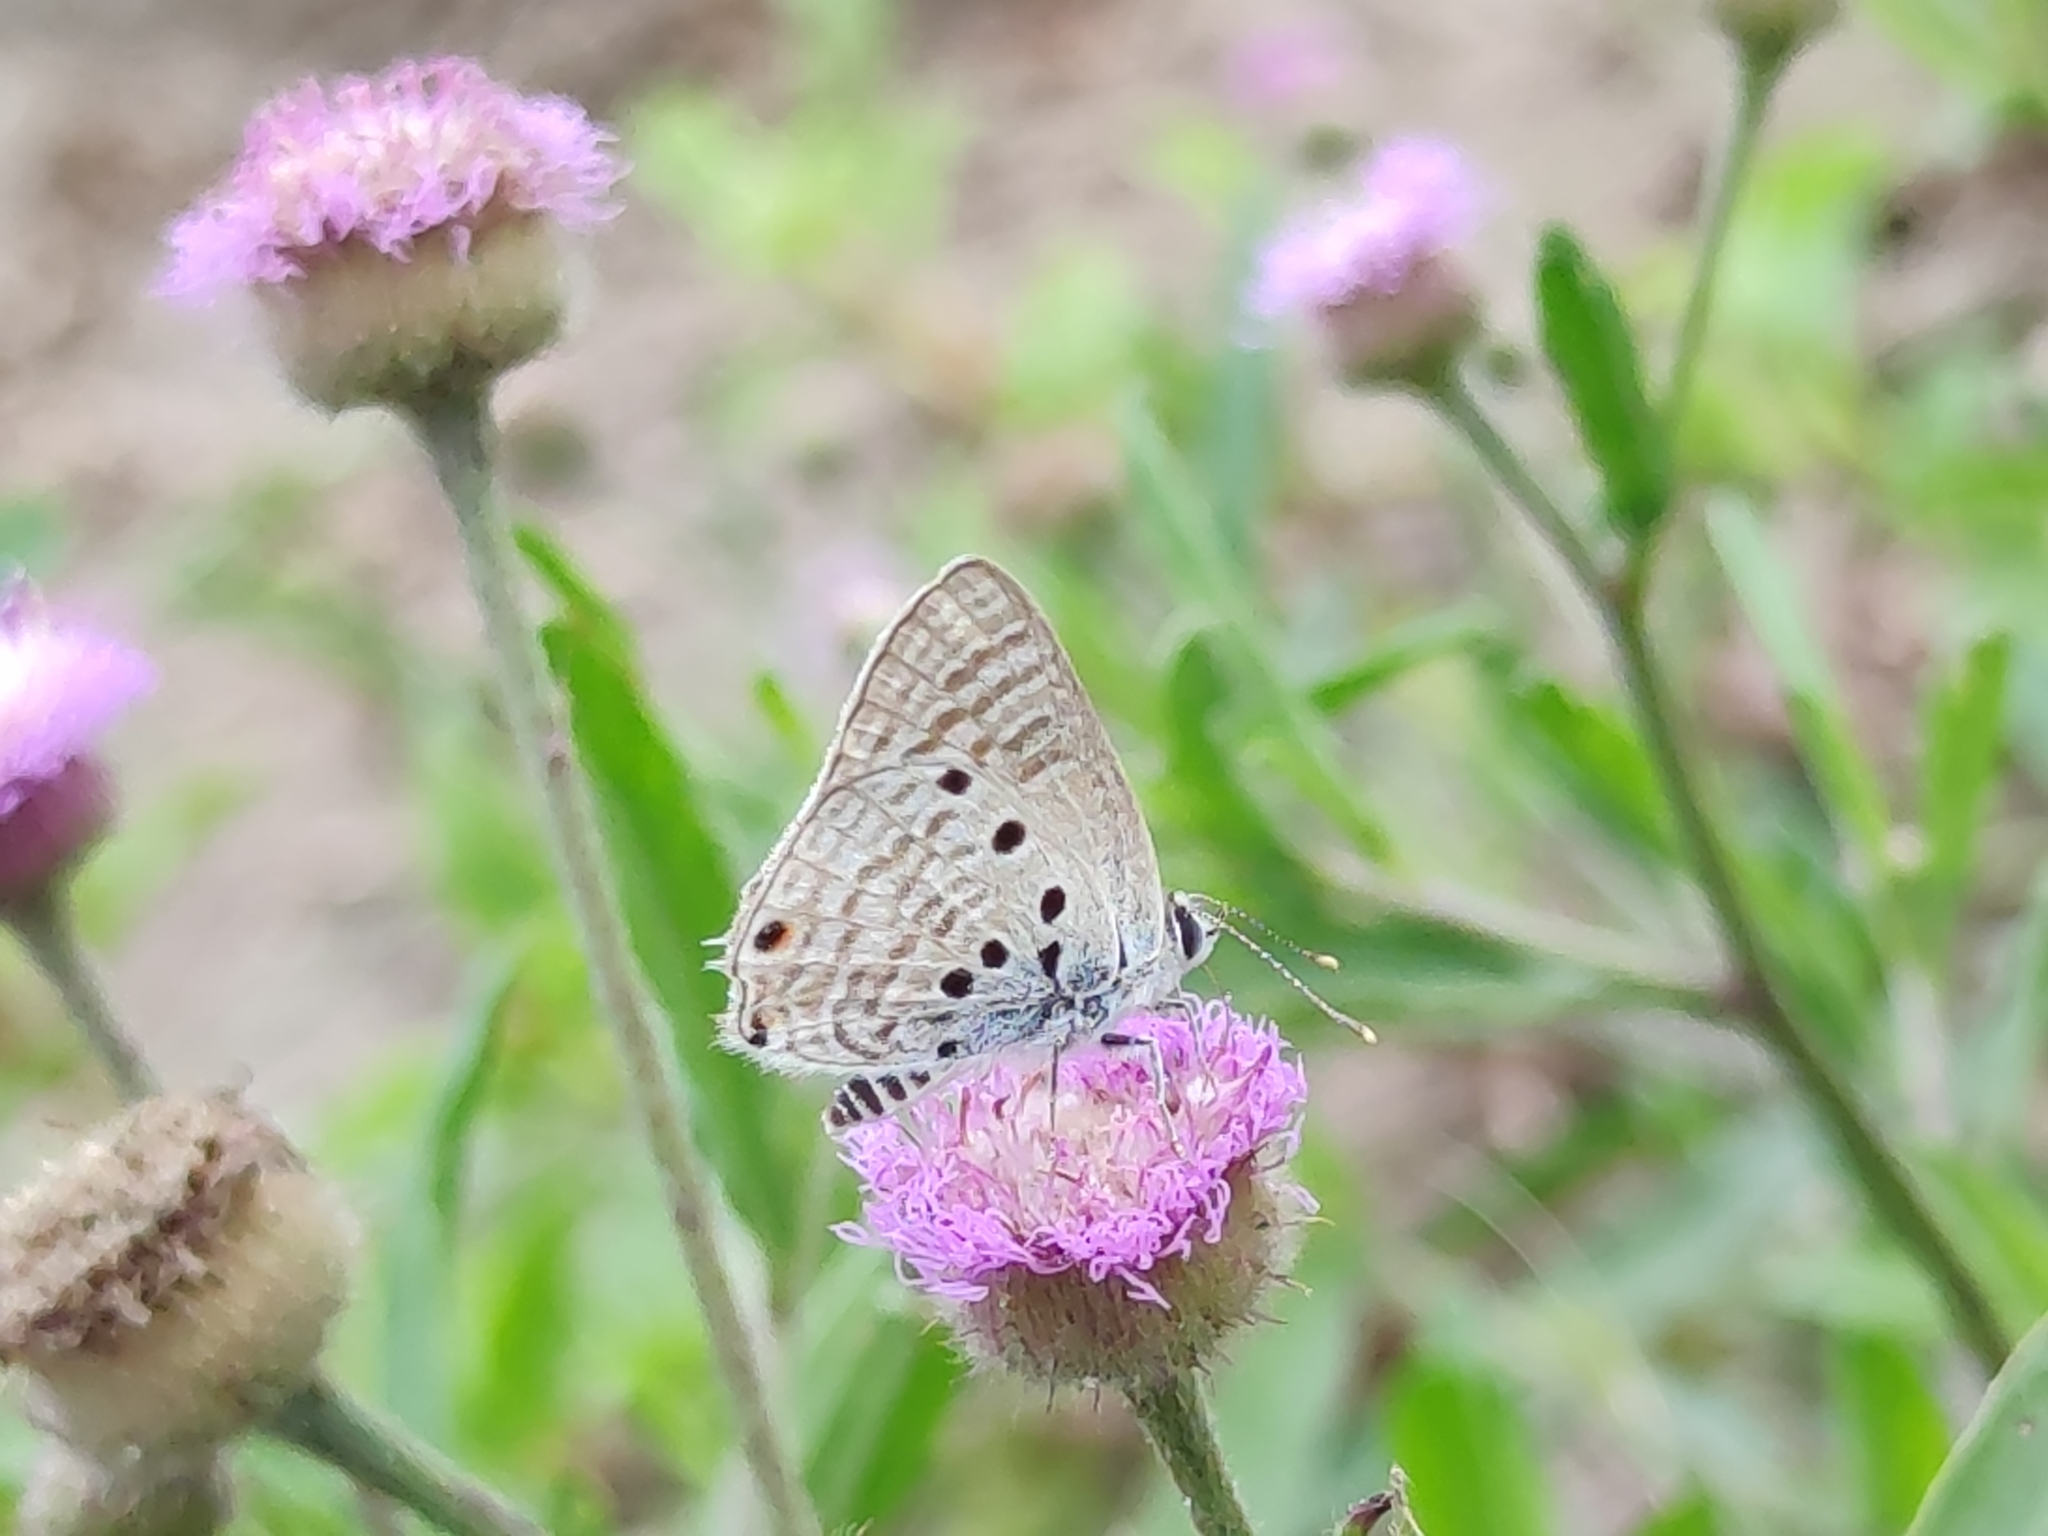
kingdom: Animalia
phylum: Arthropoda
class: Insecta
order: Lepidoptera
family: Lycaenidae
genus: Anthene
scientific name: Anthene amarah
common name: Black-striped hairtail
